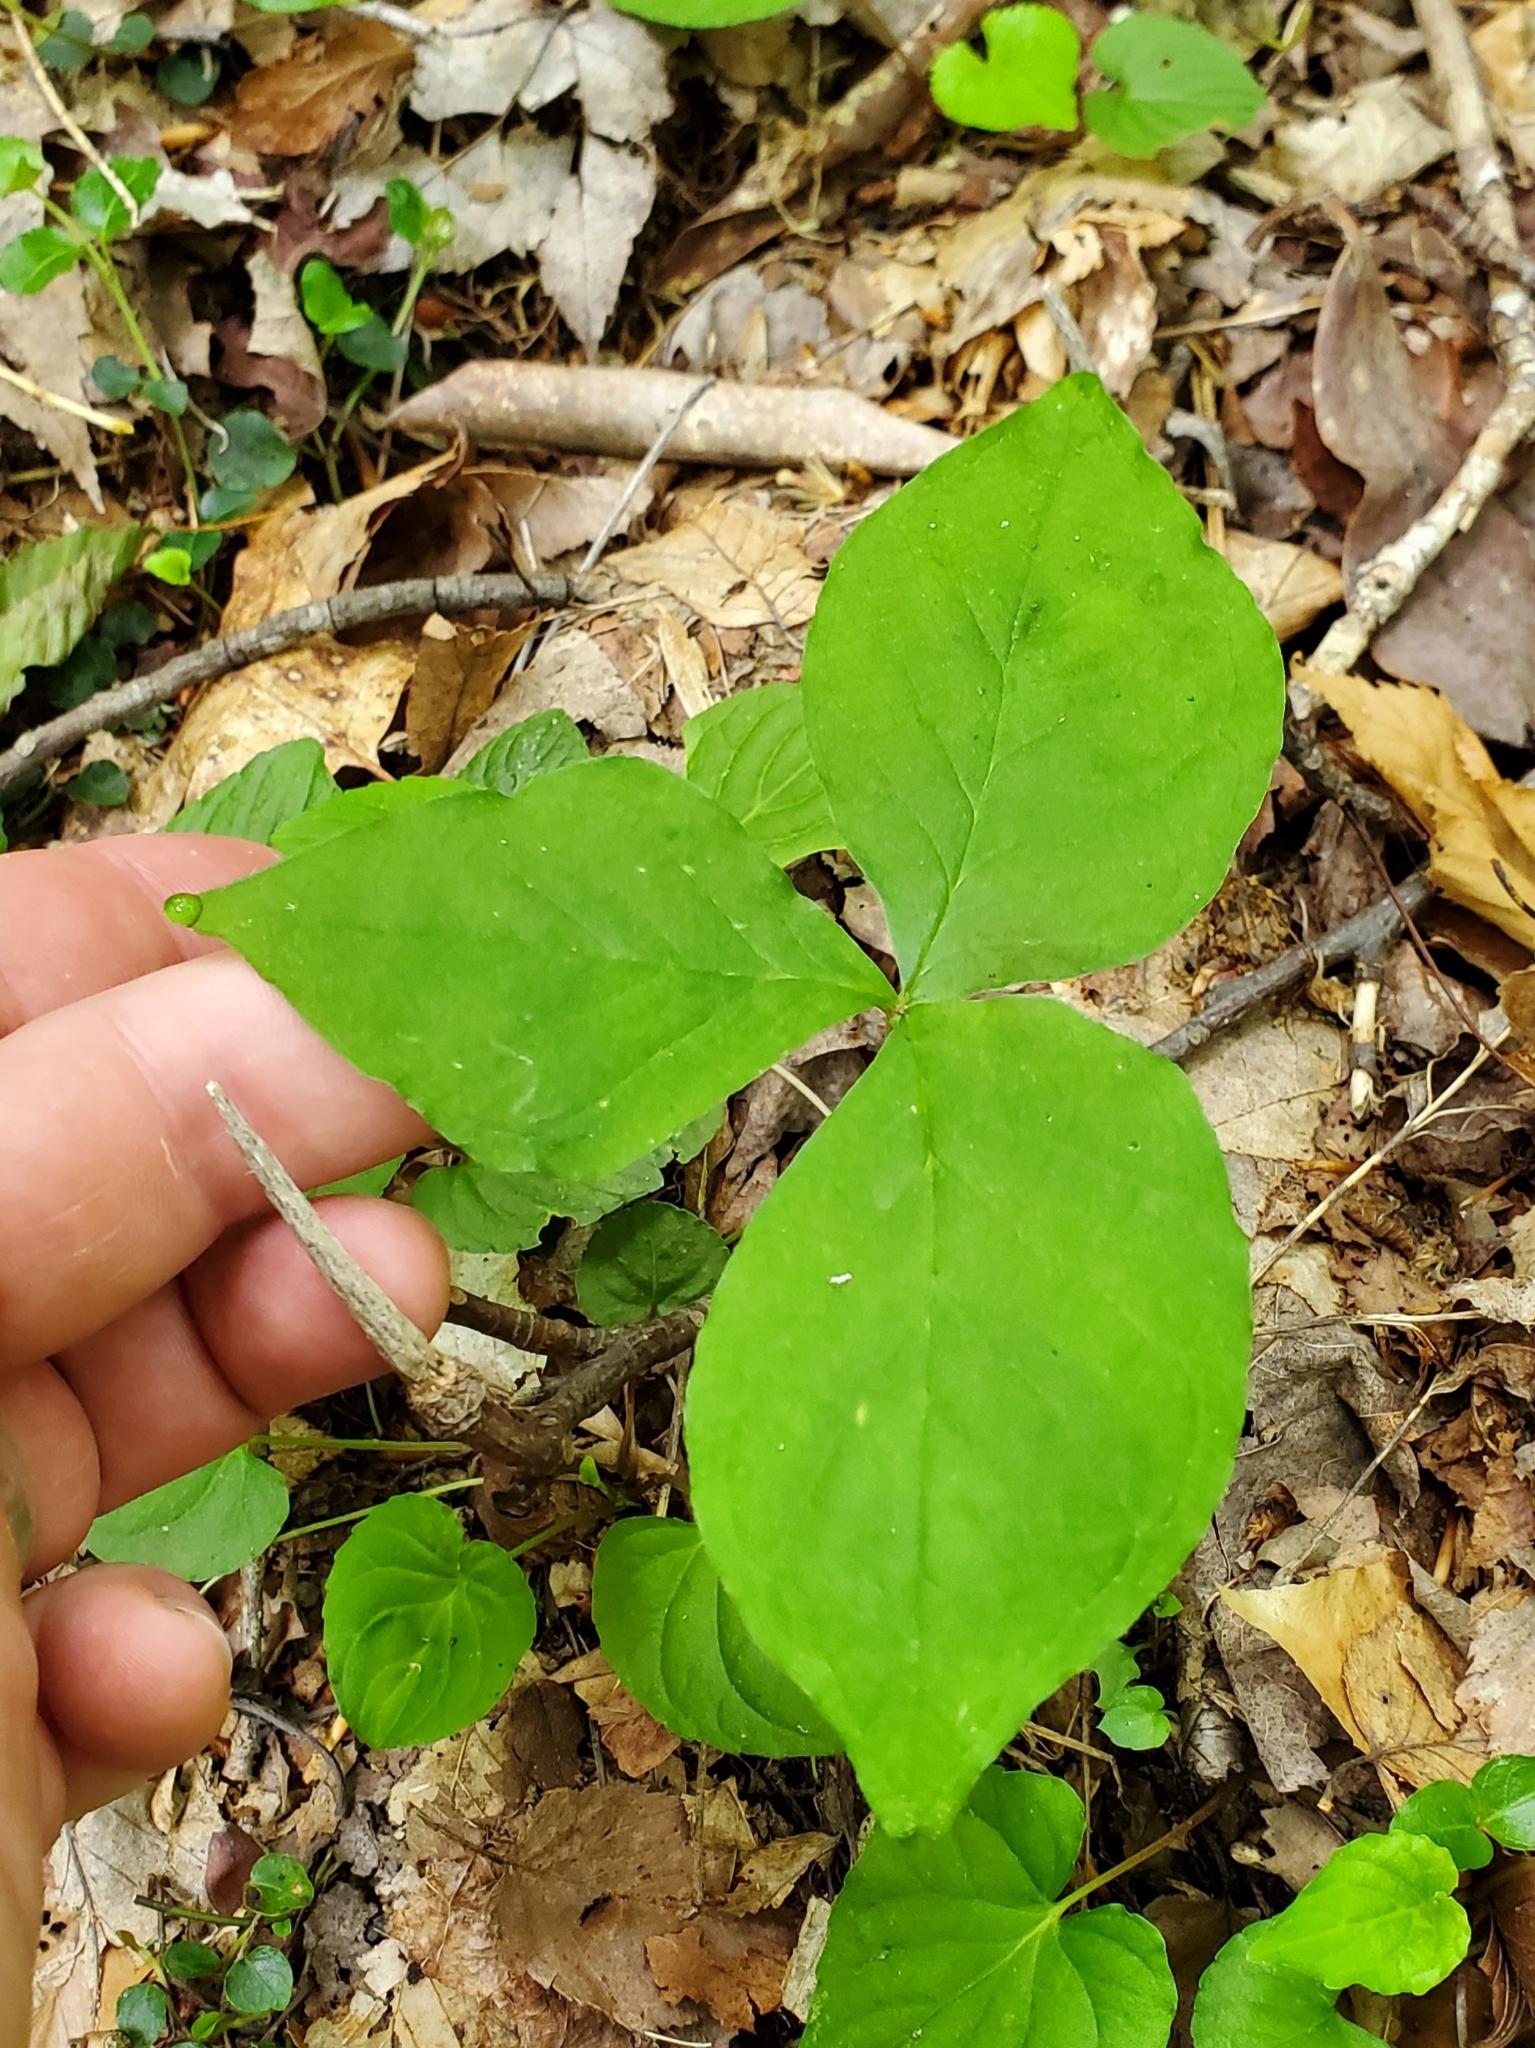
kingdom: Plantae
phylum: Tracheophyta
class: Liliopsida
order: Alismatales
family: Araceae
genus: Arisaema
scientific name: Arisaema triphyllum
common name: Jack-in-the-pulpit
